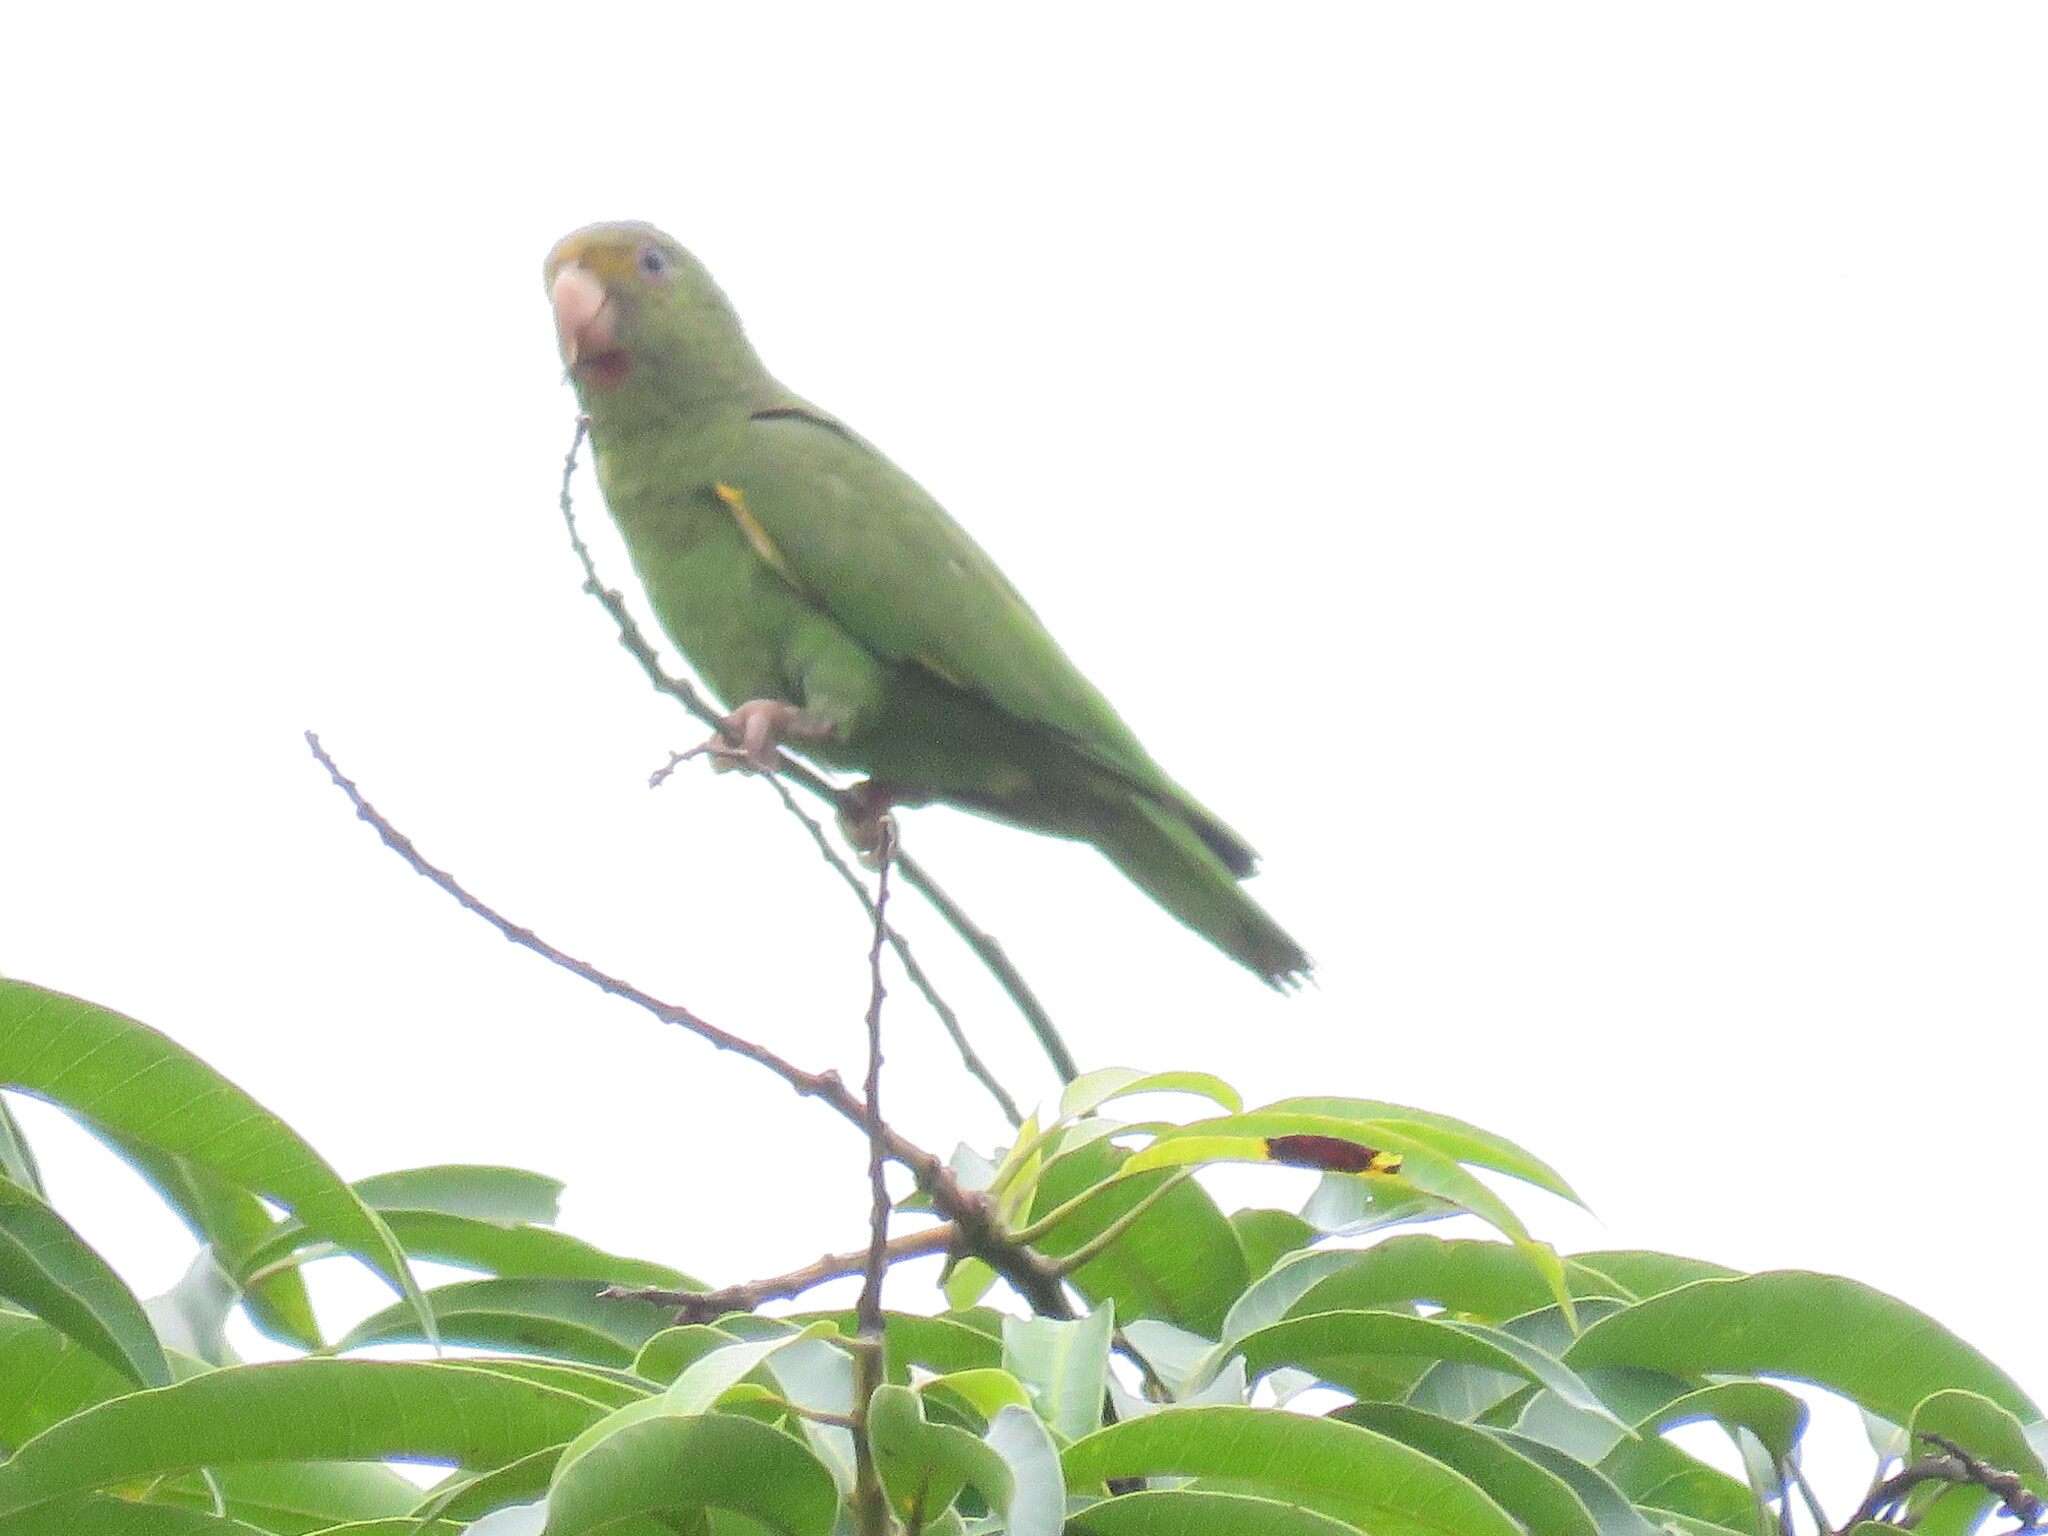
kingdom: Animalia
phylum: Chordata
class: Aves
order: Psittaciformes
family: Psittacidae
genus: Brotogeris
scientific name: Brotogeris cyanoptera
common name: Cobalt-winged parakeet
